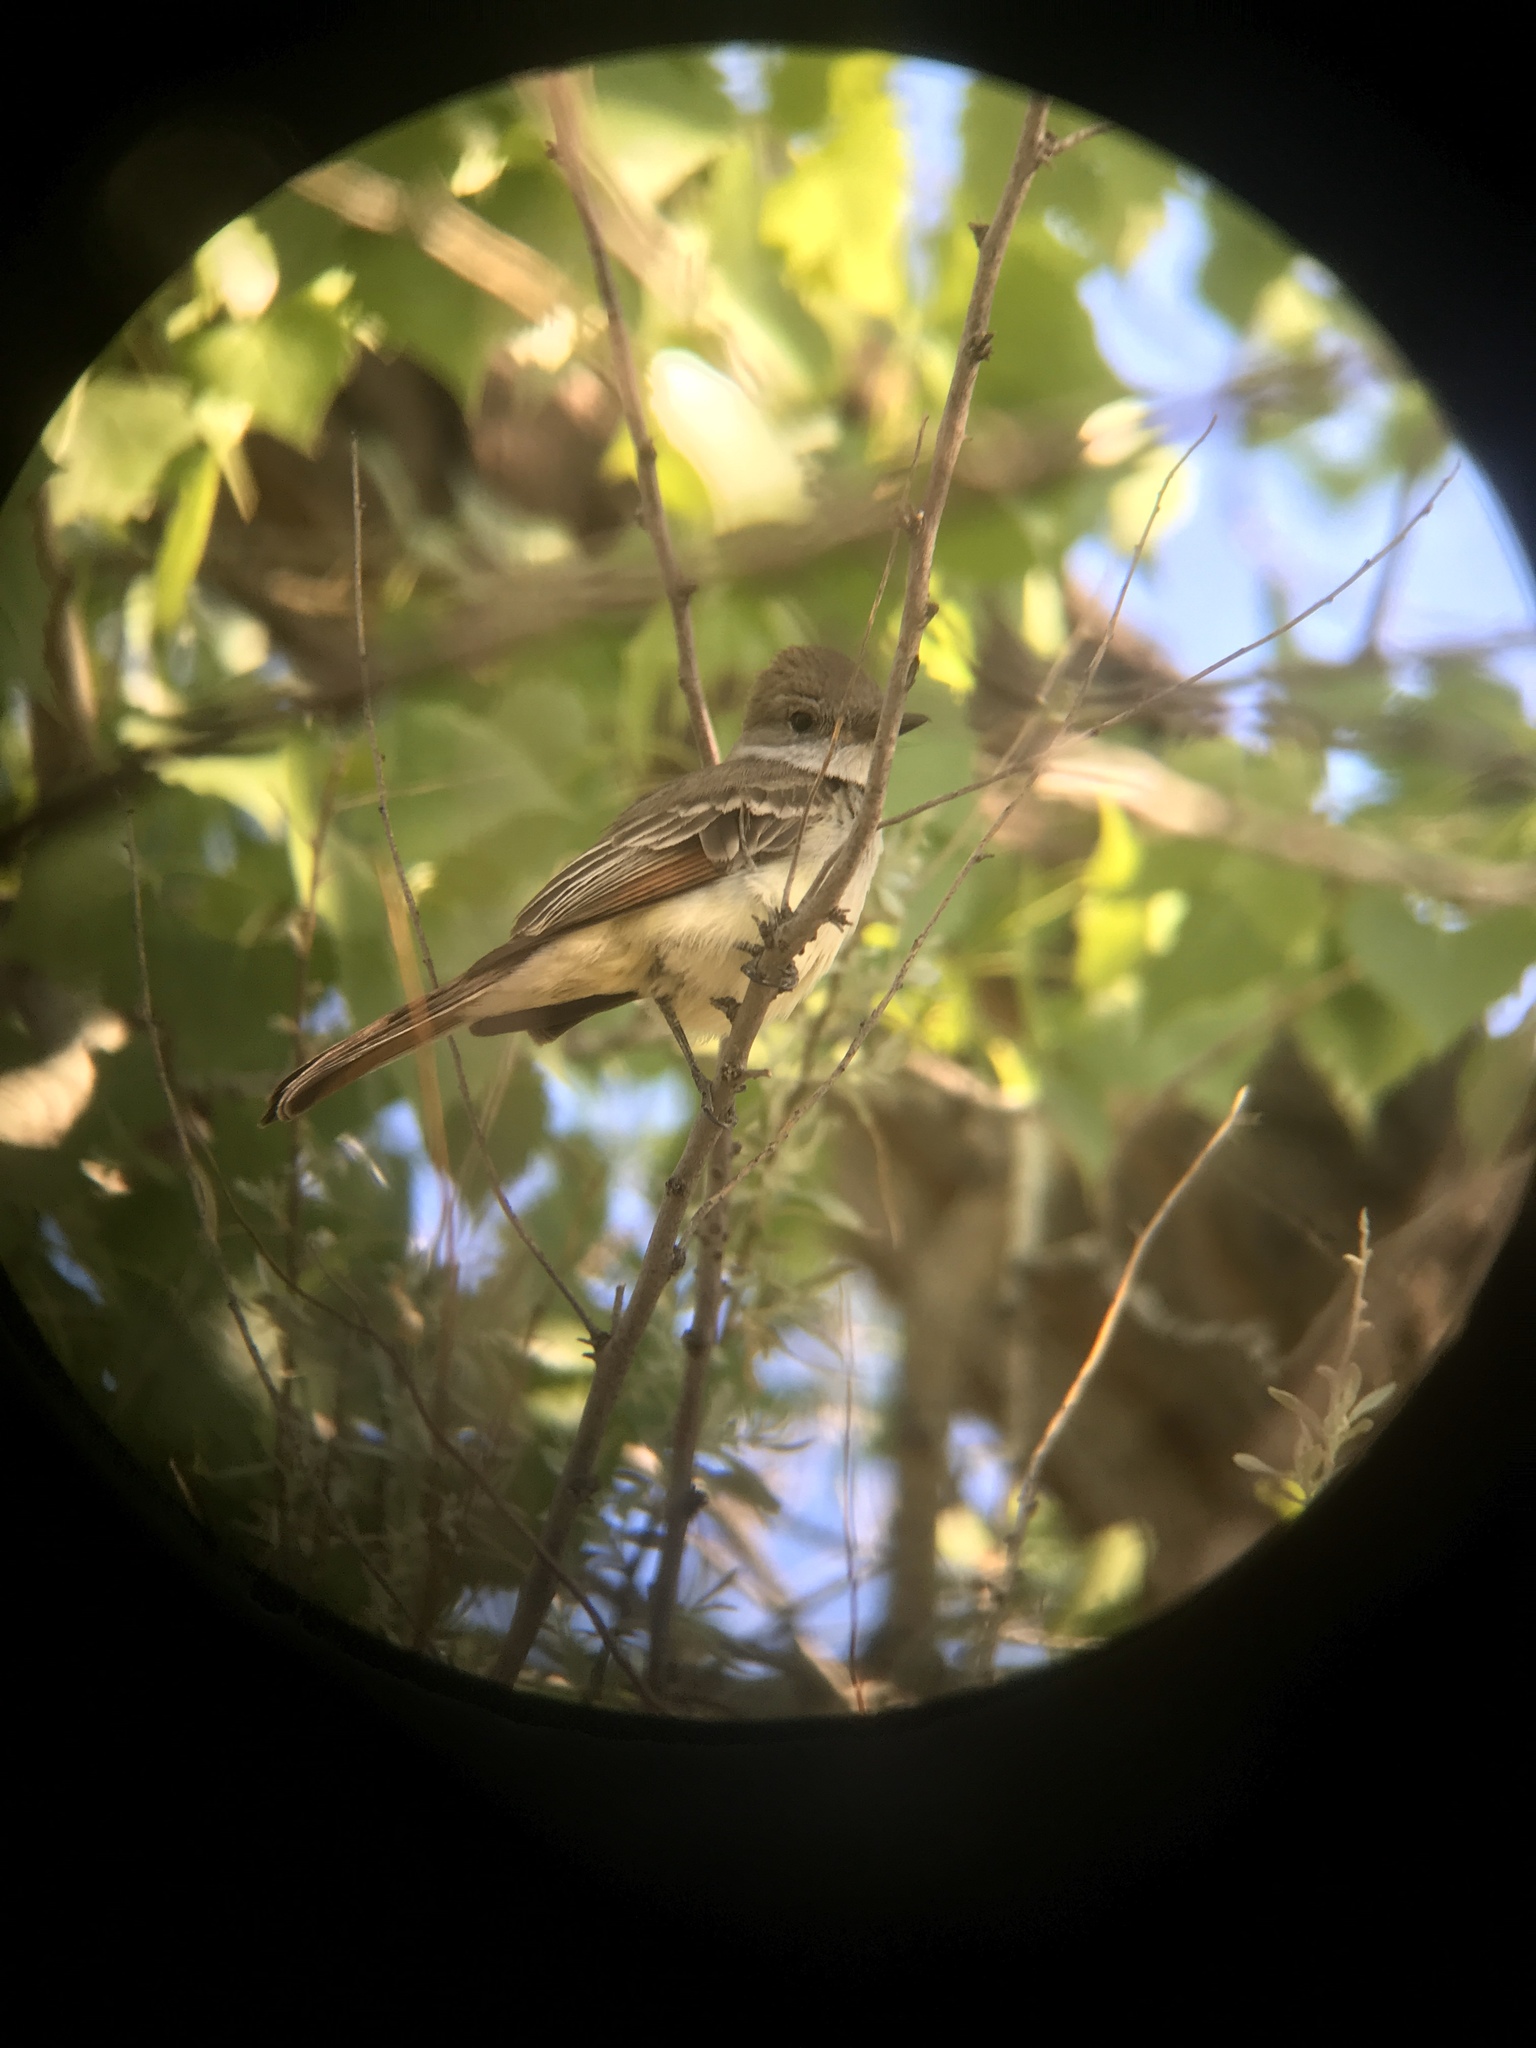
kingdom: Animalia
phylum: Chordata
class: Aves
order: Passeriformes
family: Tyrannidae
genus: Myiarchus
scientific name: Myiarchus cinerascens
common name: Ash-throated flycatcher
